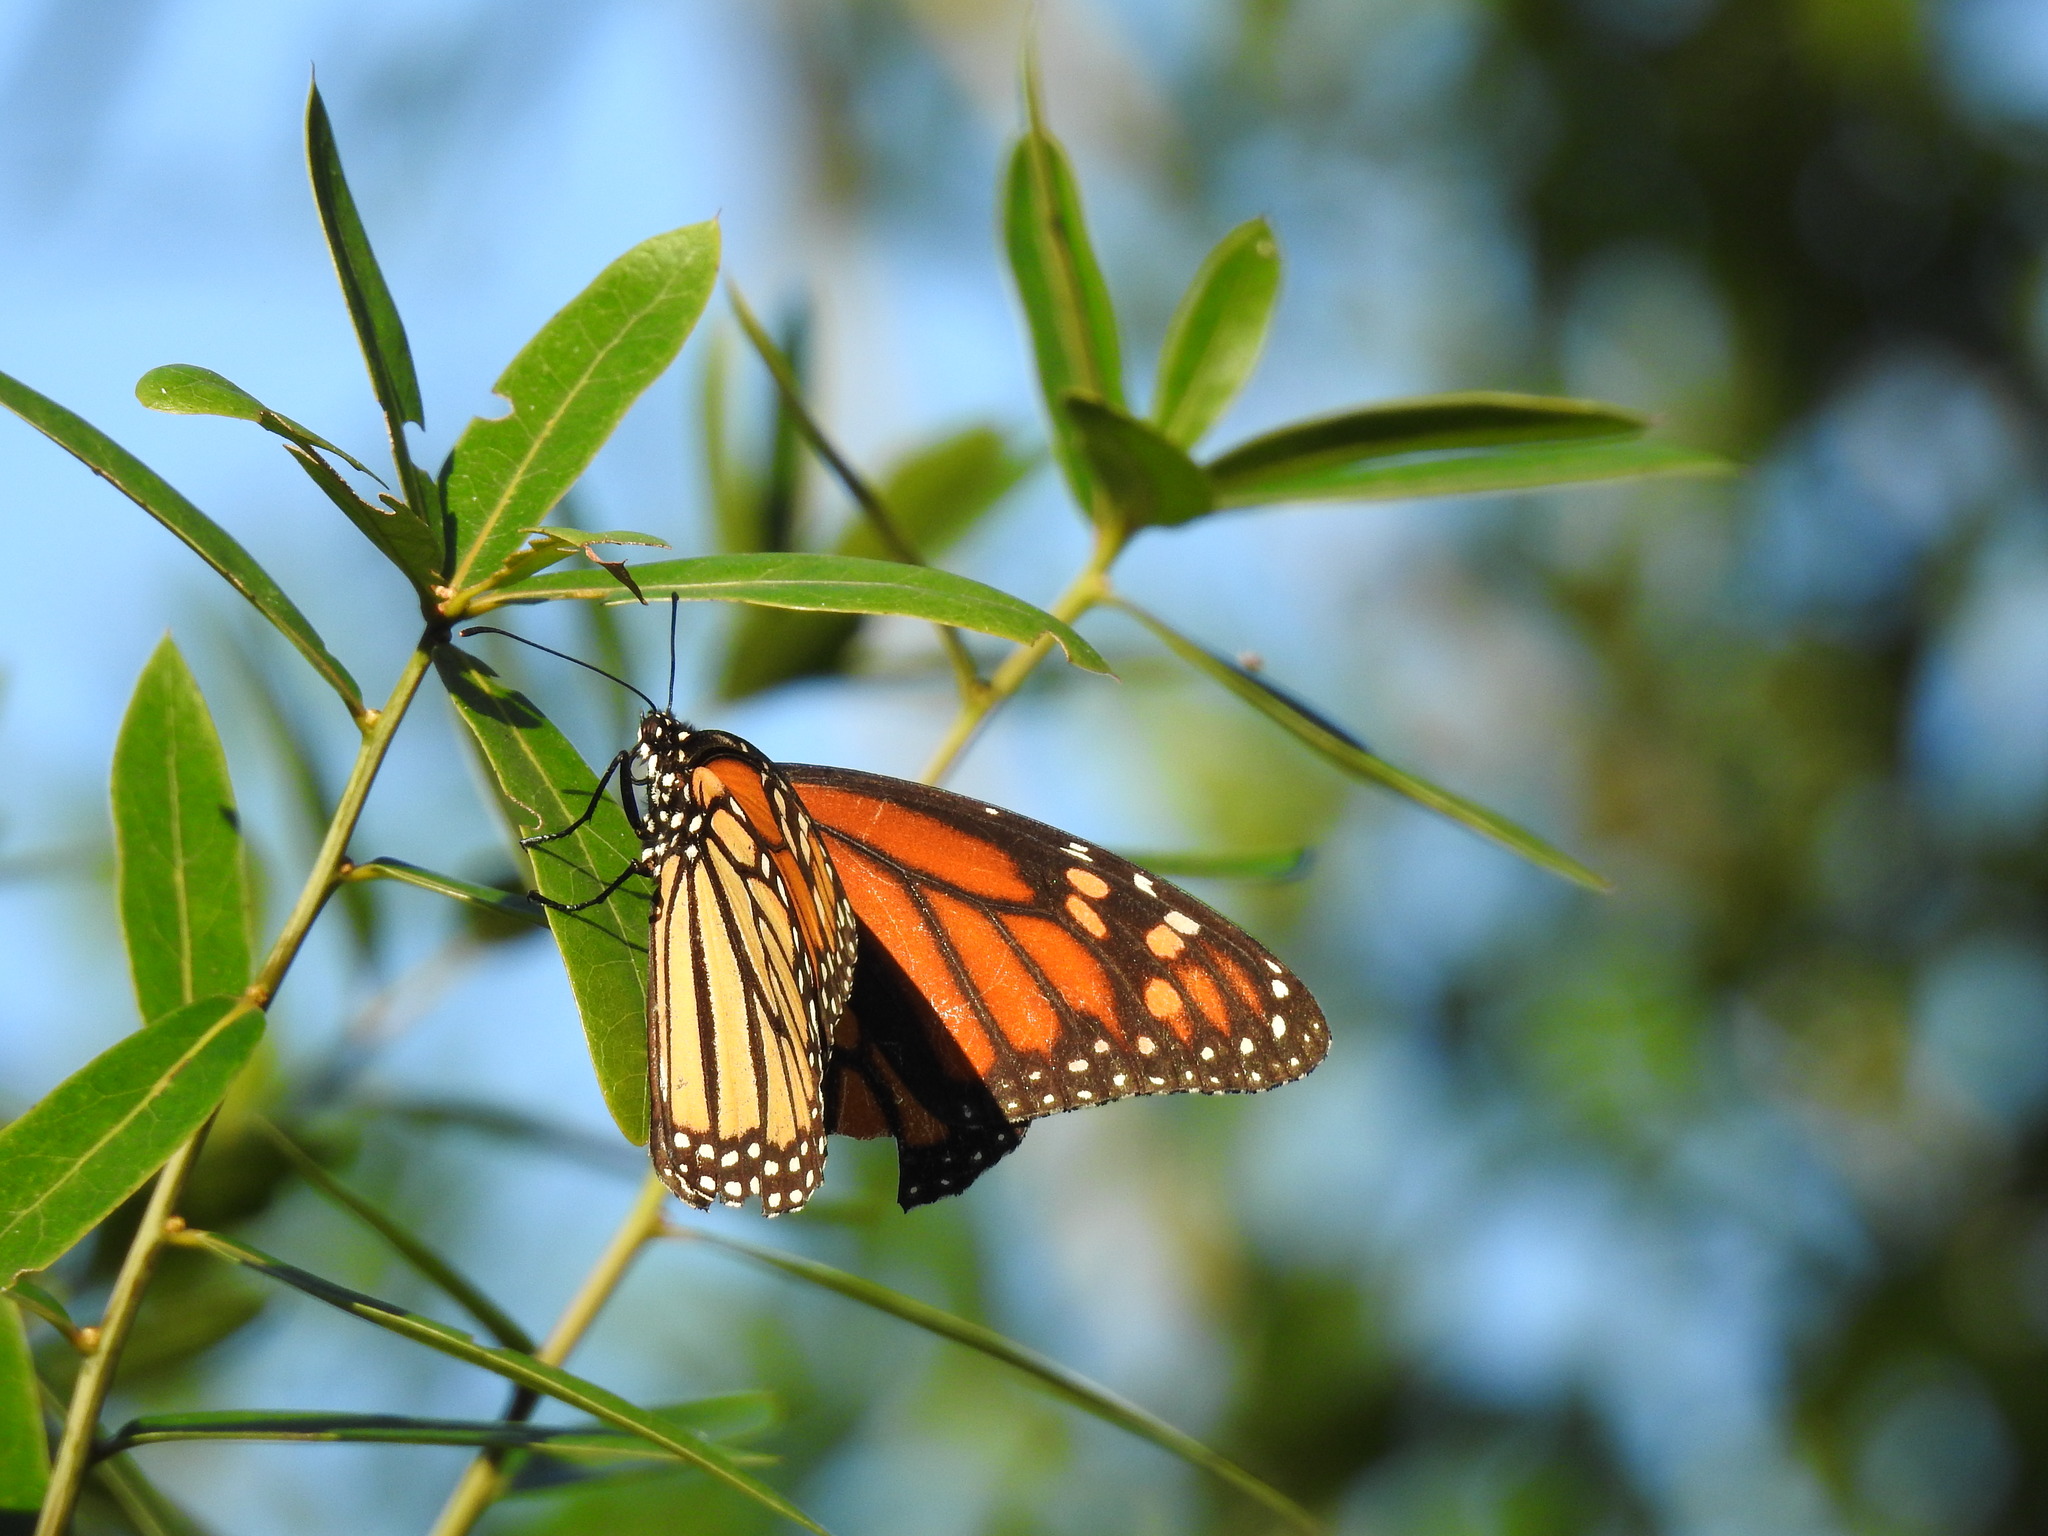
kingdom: Animalia
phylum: Arthropoda
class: Insecta
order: Lepidoptera
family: Nymphalidae
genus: Danaus
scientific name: Danaus plexippus
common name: Monarch
